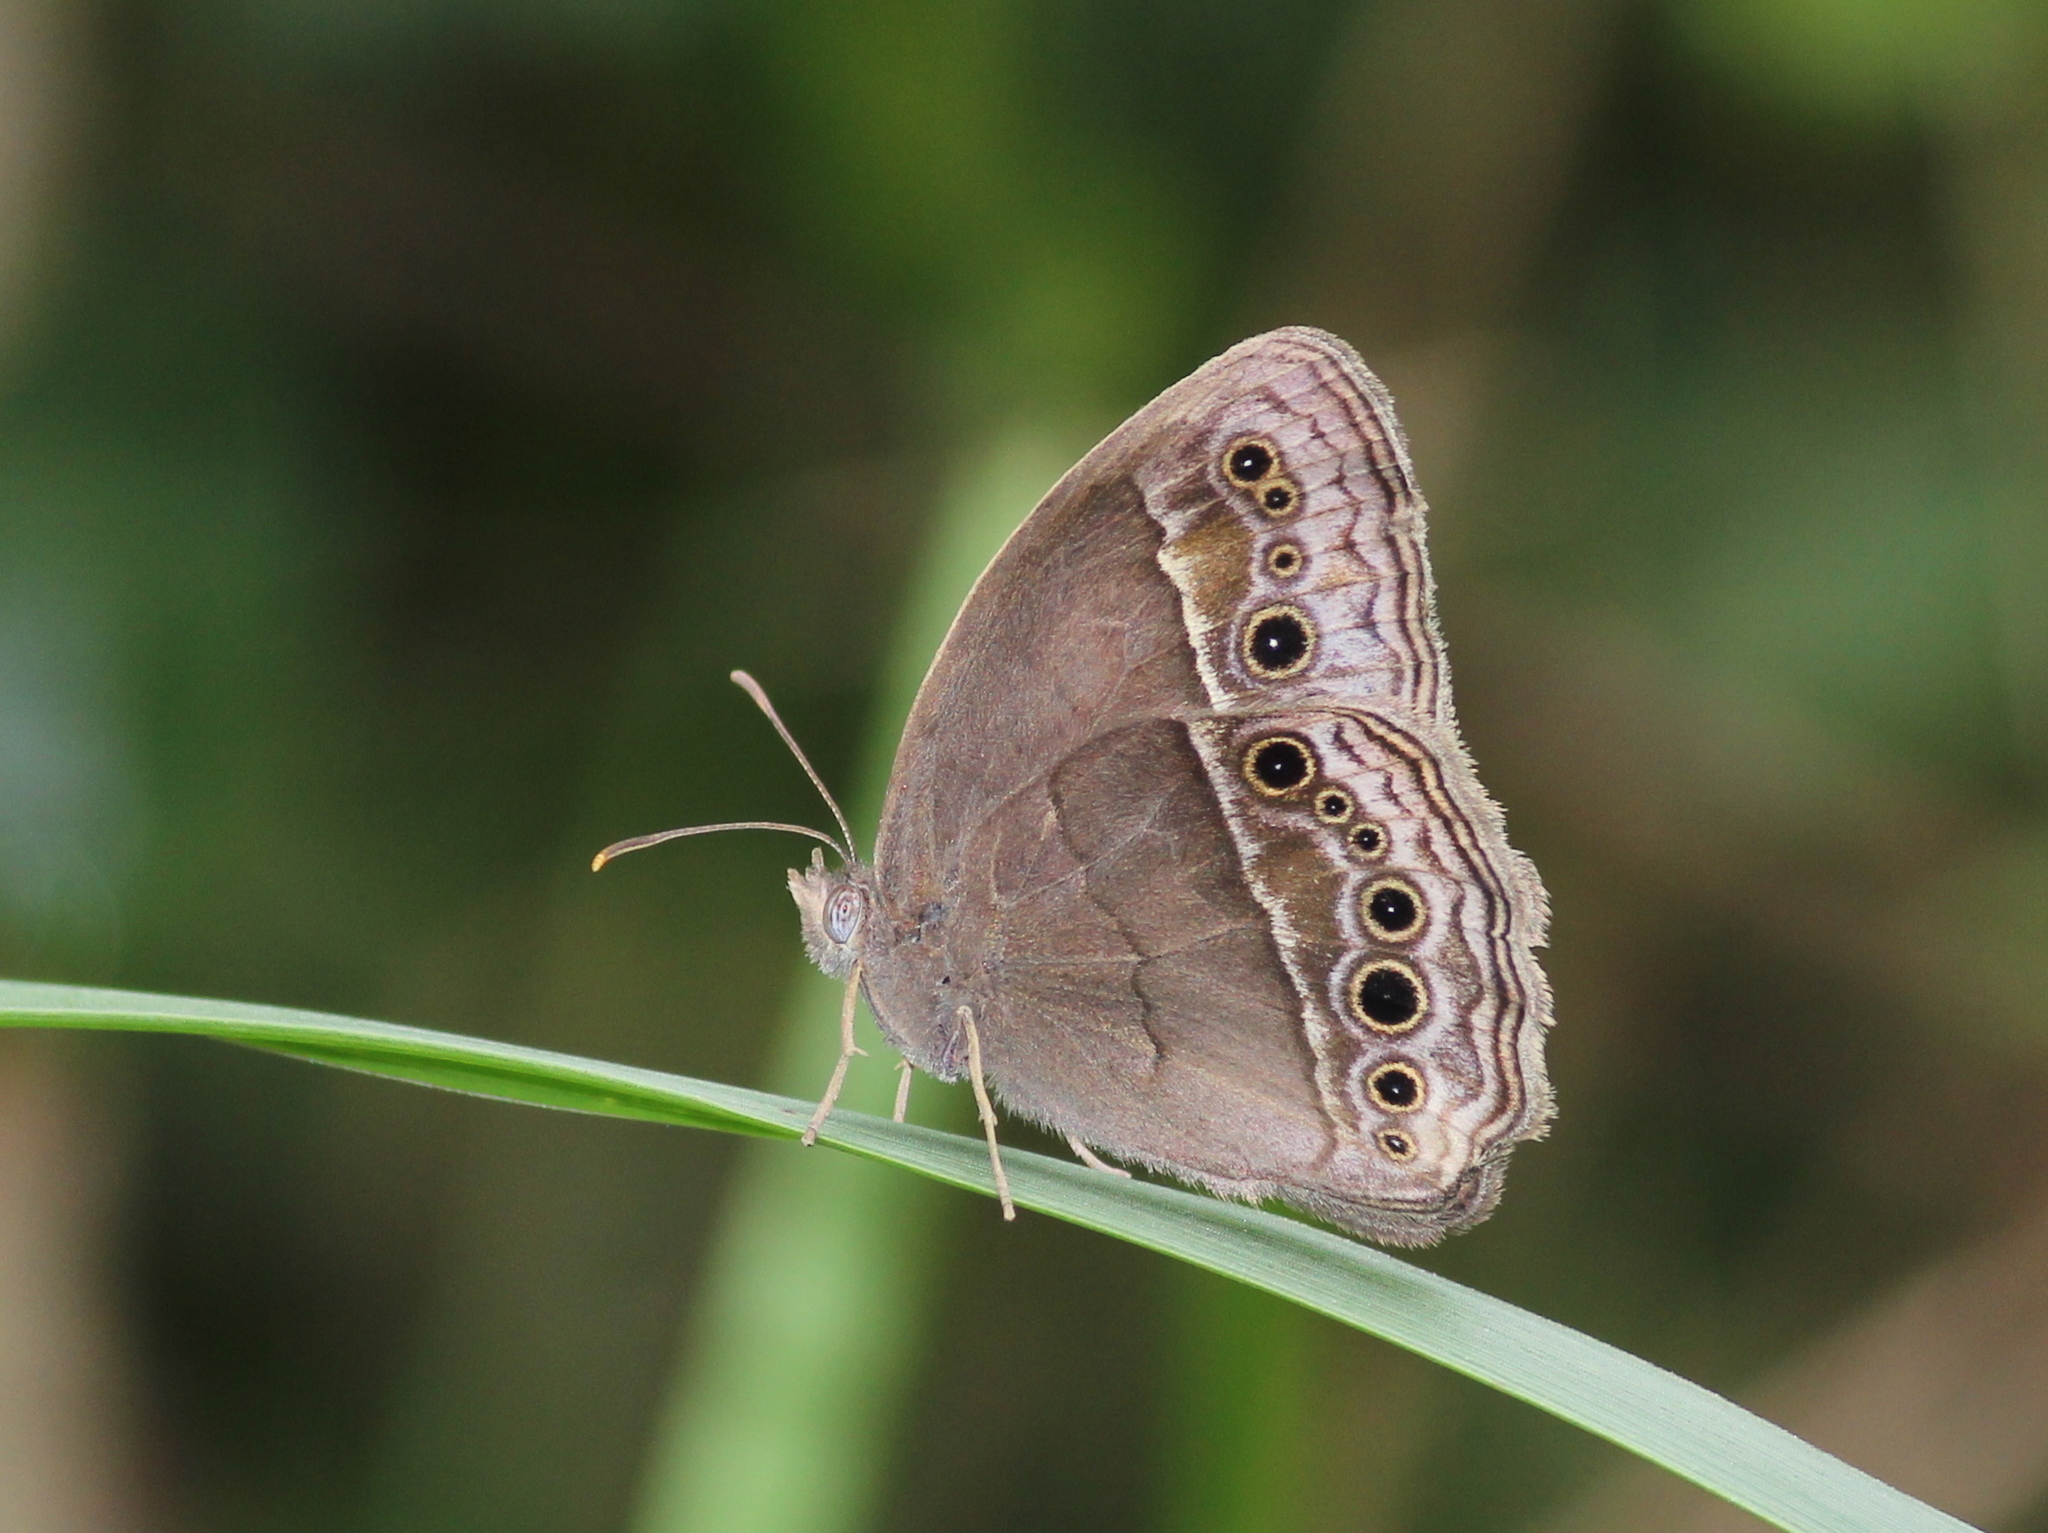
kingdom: Animalia
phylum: Arthropoda
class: Insecta
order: Lepidoptera
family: Nymphalidae
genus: Mycalesis
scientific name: Mycalesis mineus
